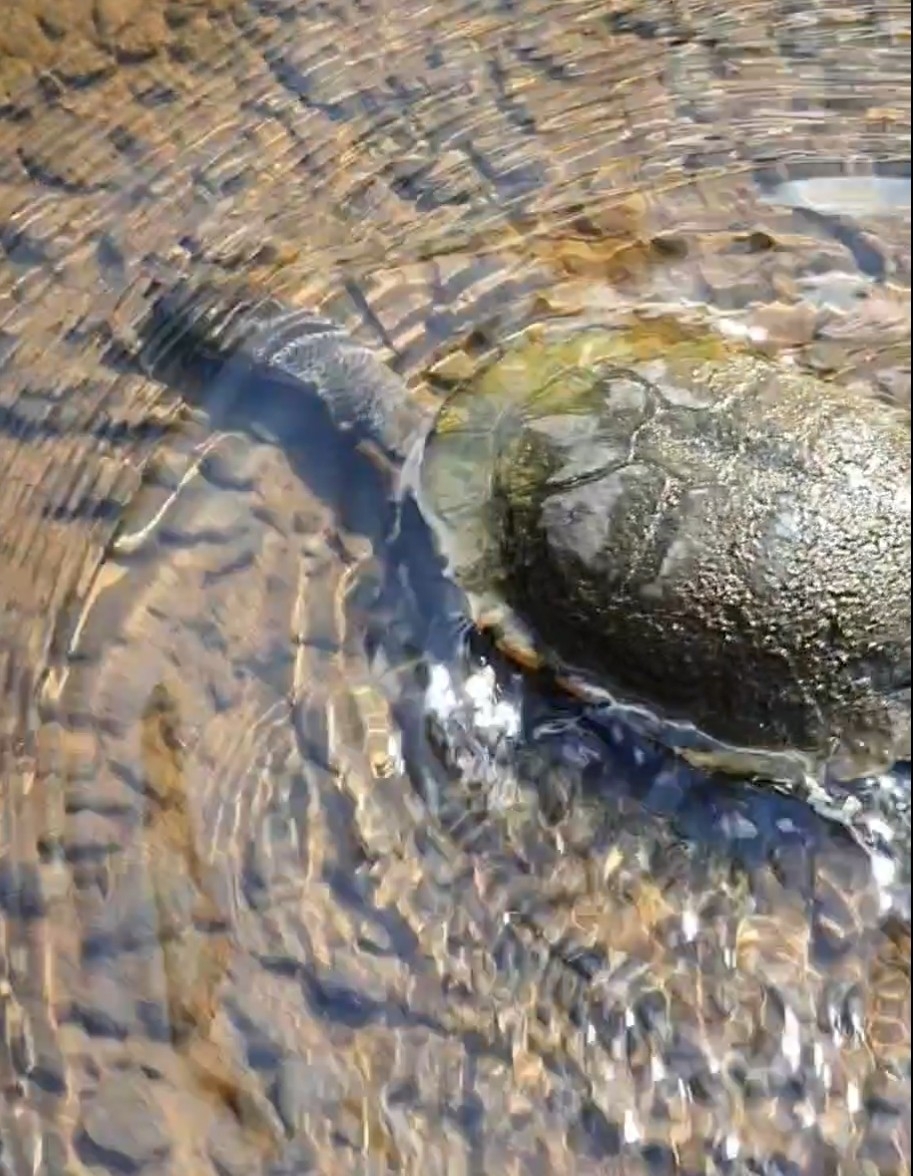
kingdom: Animalia
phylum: Chordata
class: Testudines
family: Chelidae
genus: Chelodina
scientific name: Chelodina longicollis
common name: Eastern snake-necked turtle
